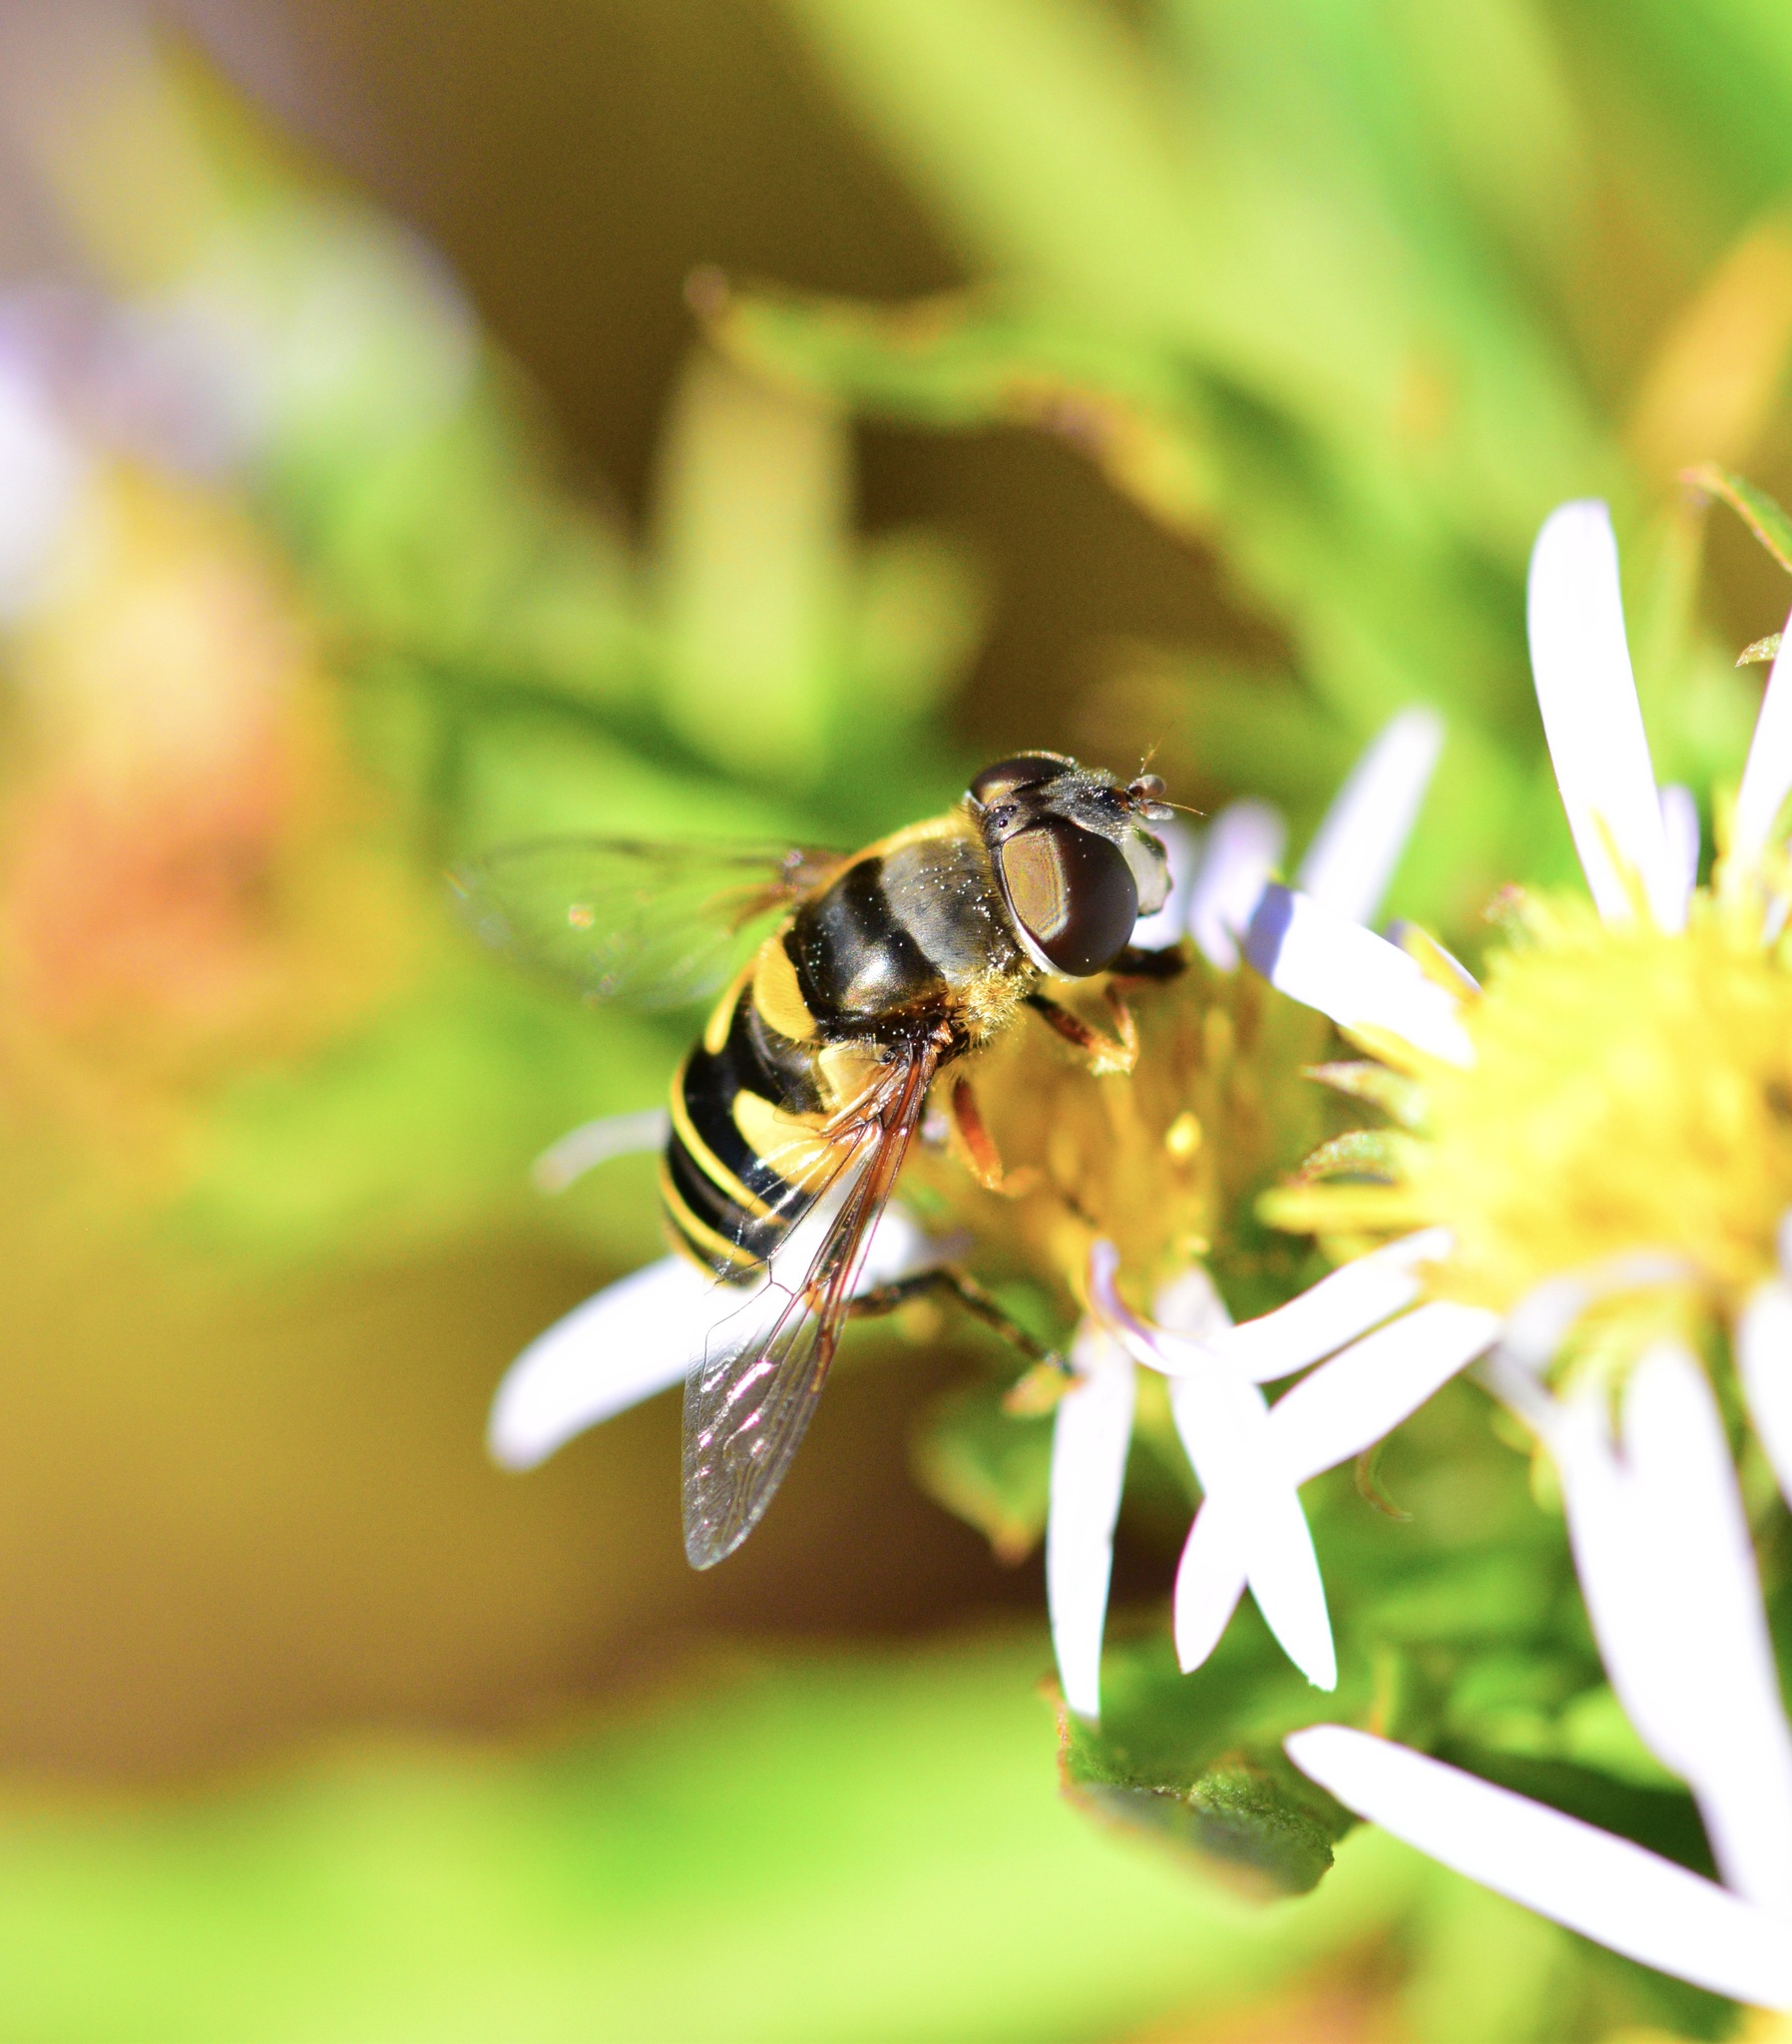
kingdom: Animalia
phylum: Arthropoda
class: Insecta
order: Diptera
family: Syrphidae
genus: Eristalis
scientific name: Eristalis transversa
